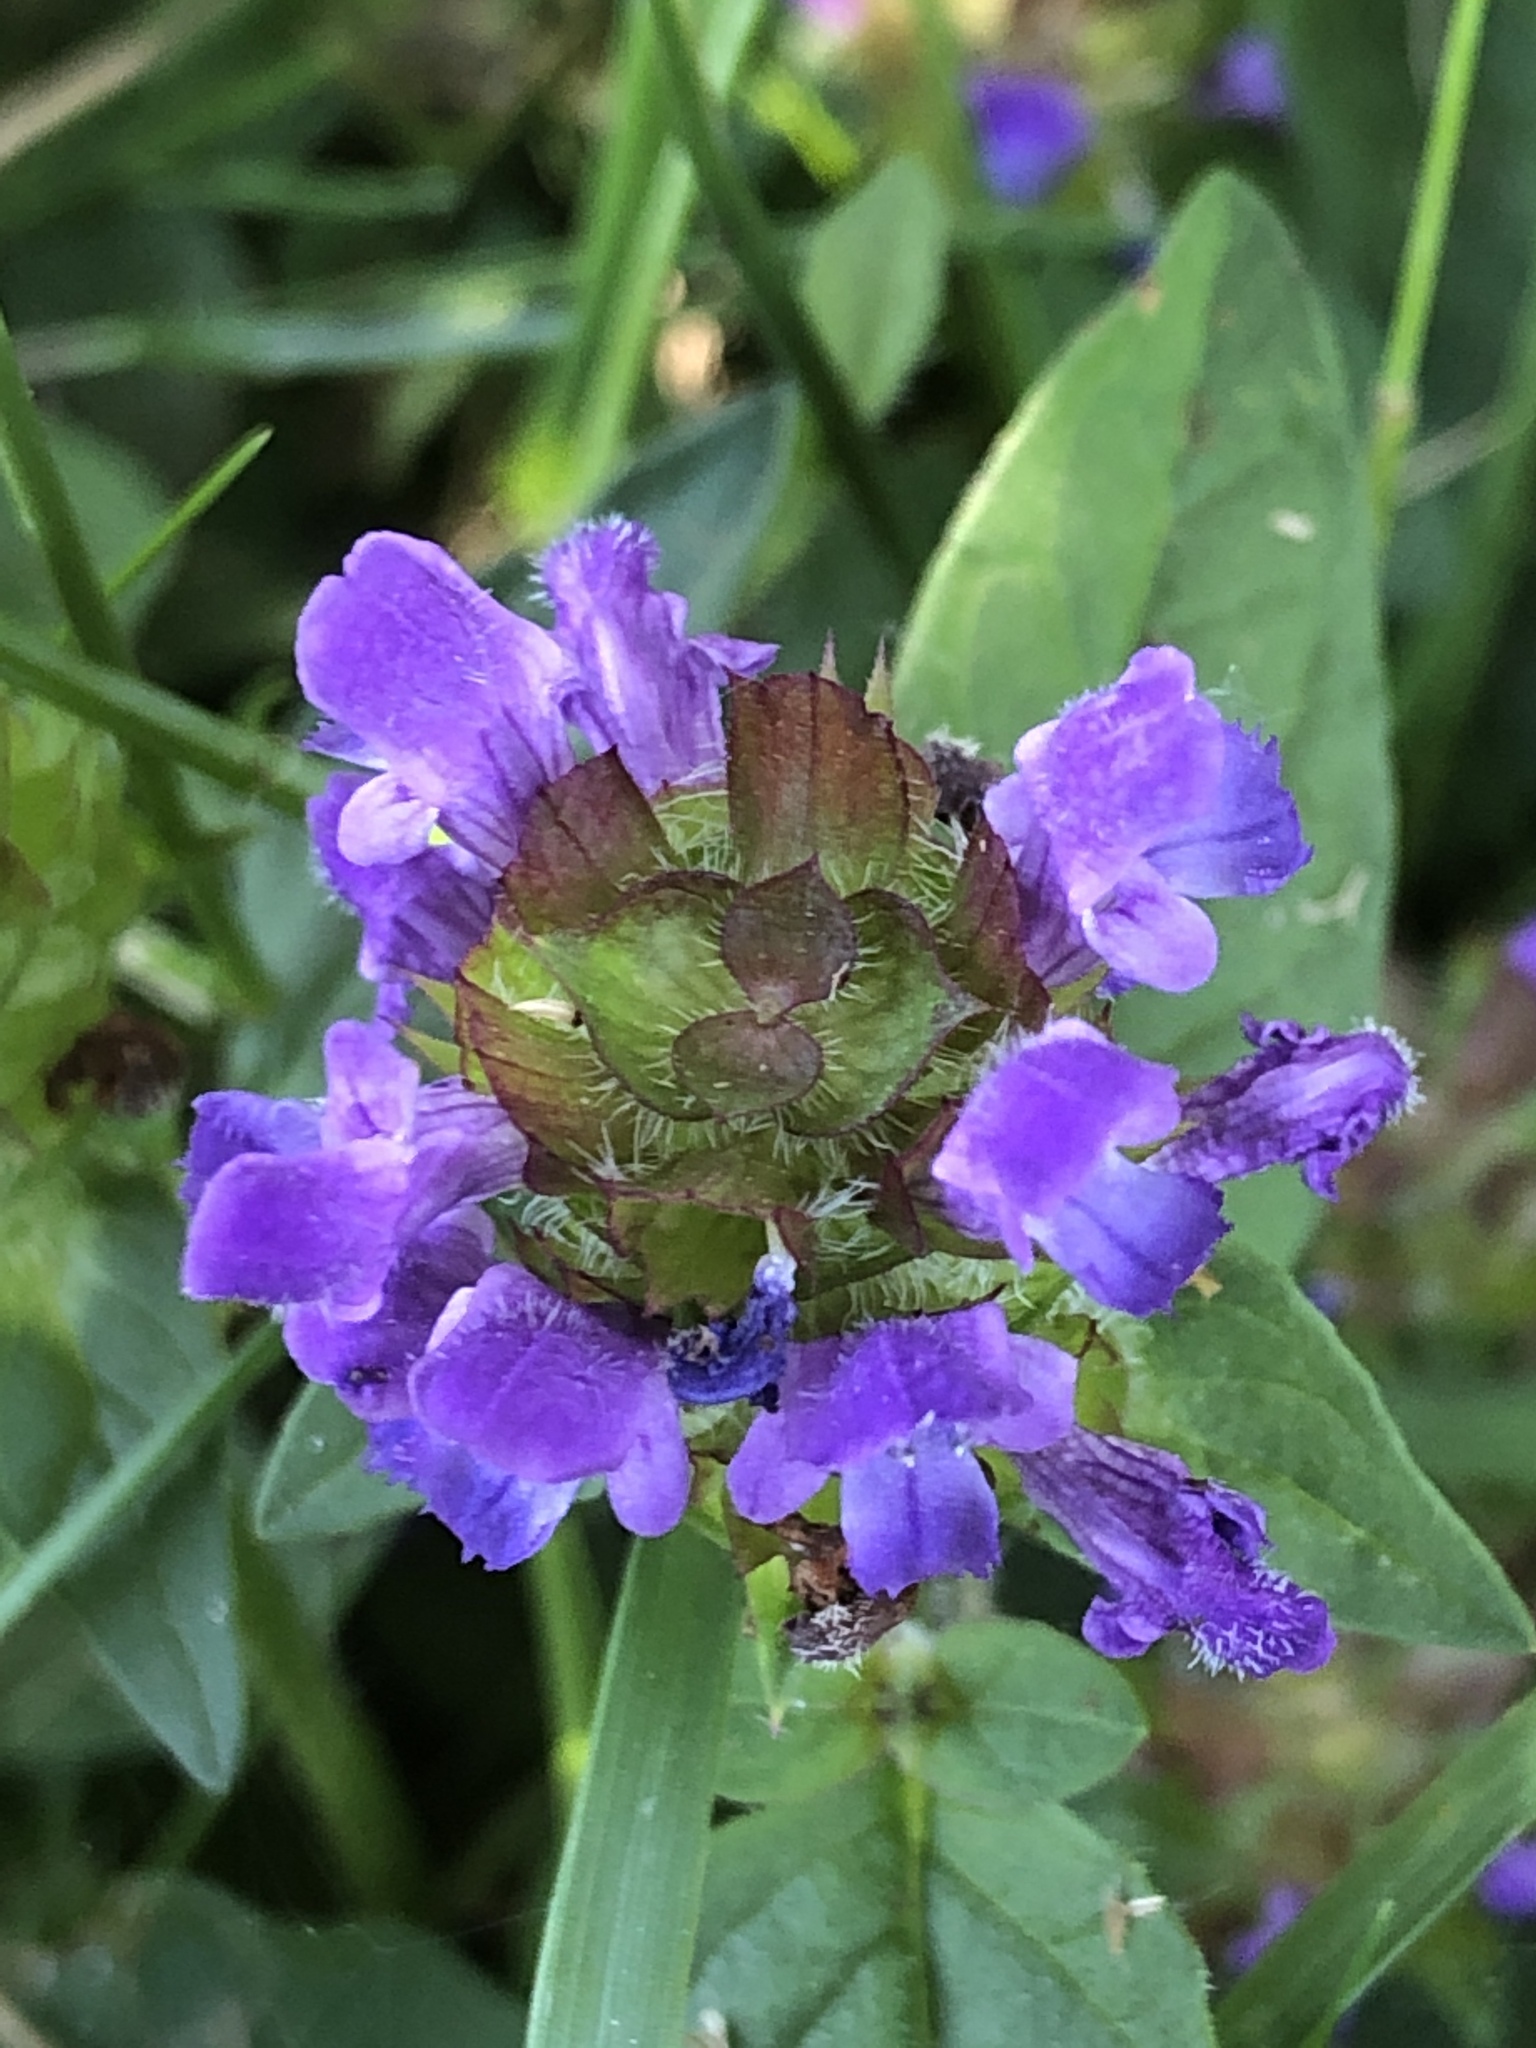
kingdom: Plantae
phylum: Tracheophyta
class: Magnoliopsida
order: Lamiales
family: Lamiaceae
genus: Prunella
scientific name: Prunella vulgaris
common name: Heal-all
